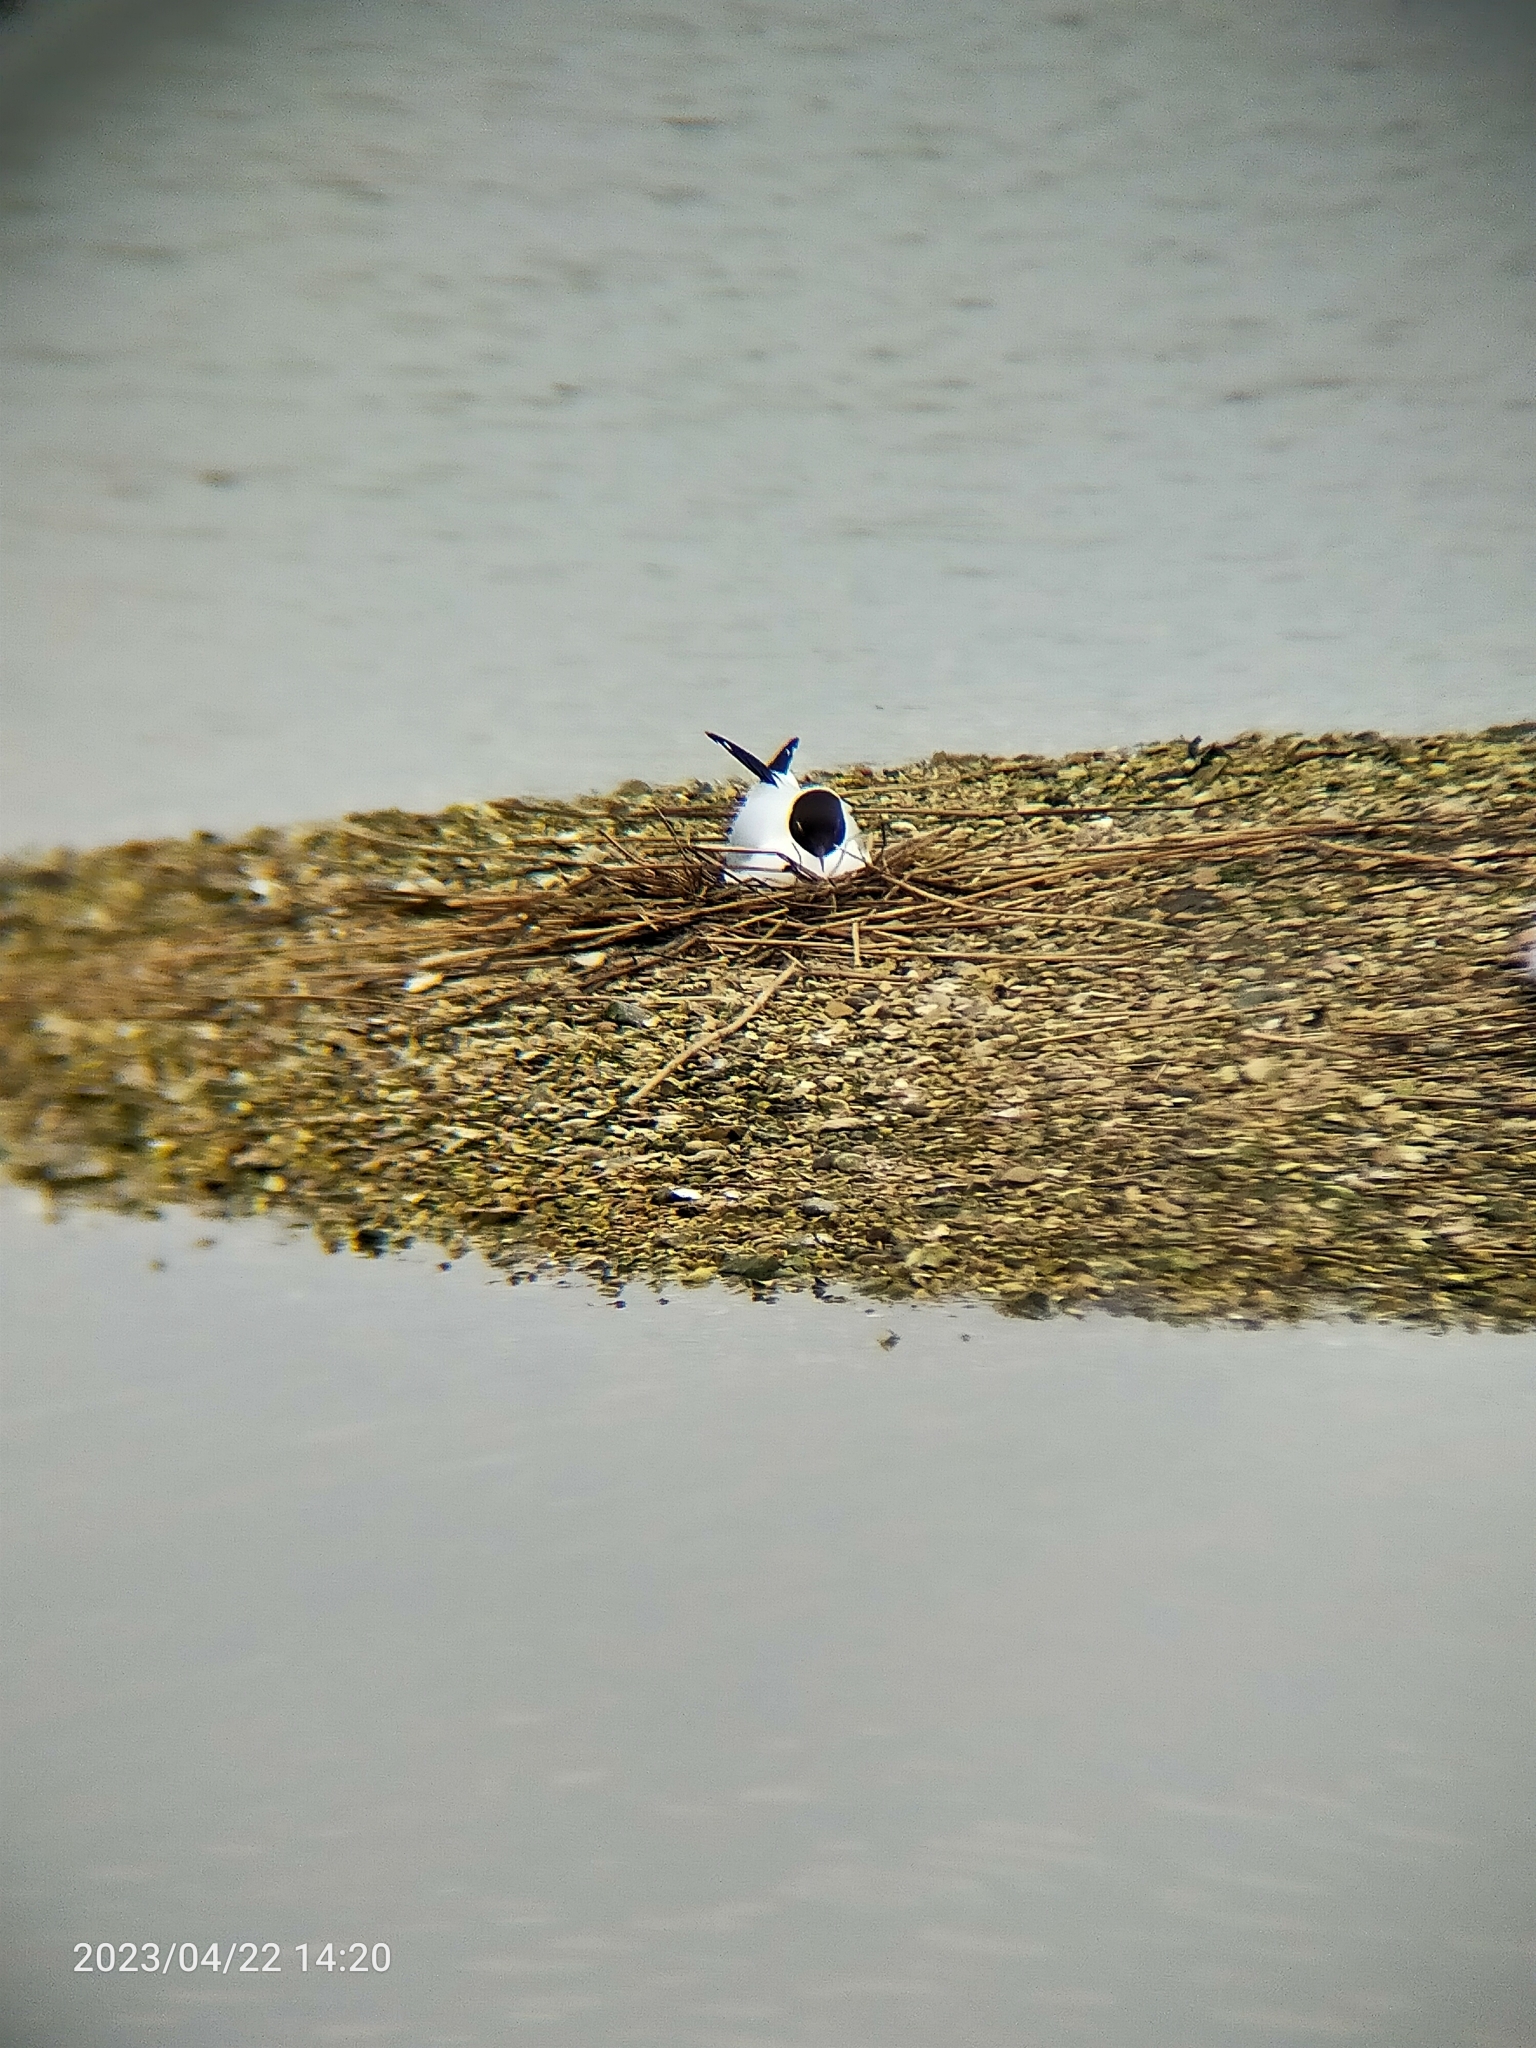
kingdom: Animalia
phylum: Chordata
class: Aves
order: Charadriiformes
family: Laridae
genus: Chroicocephalus
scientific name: Chroicocephalus ridibundus
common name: Black-headed gull
